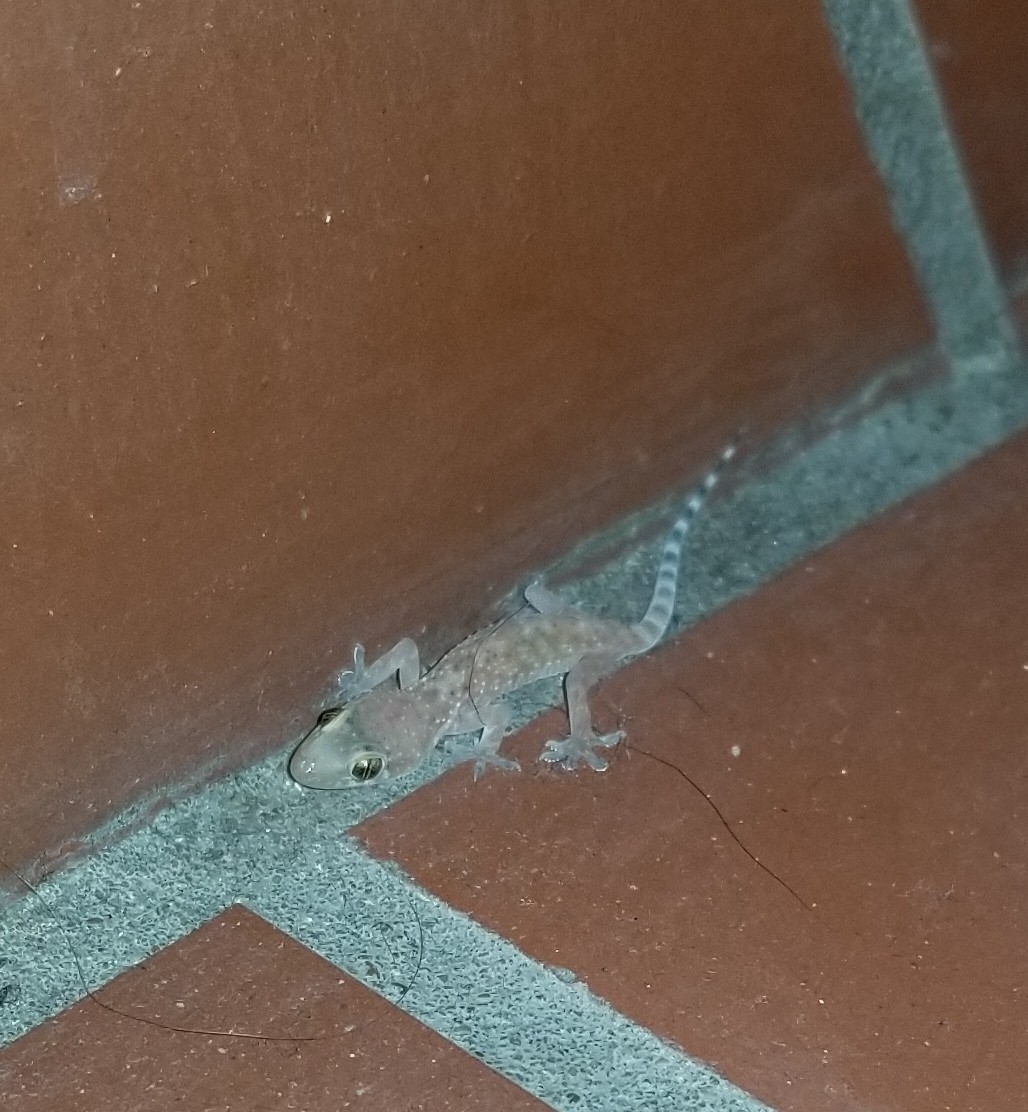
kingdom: Animalia
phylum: Chordata
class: Squamata
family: Gekkonidae
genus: Hemidactylus
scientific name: Hemidactylus turcicus
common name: Turkish gecko
